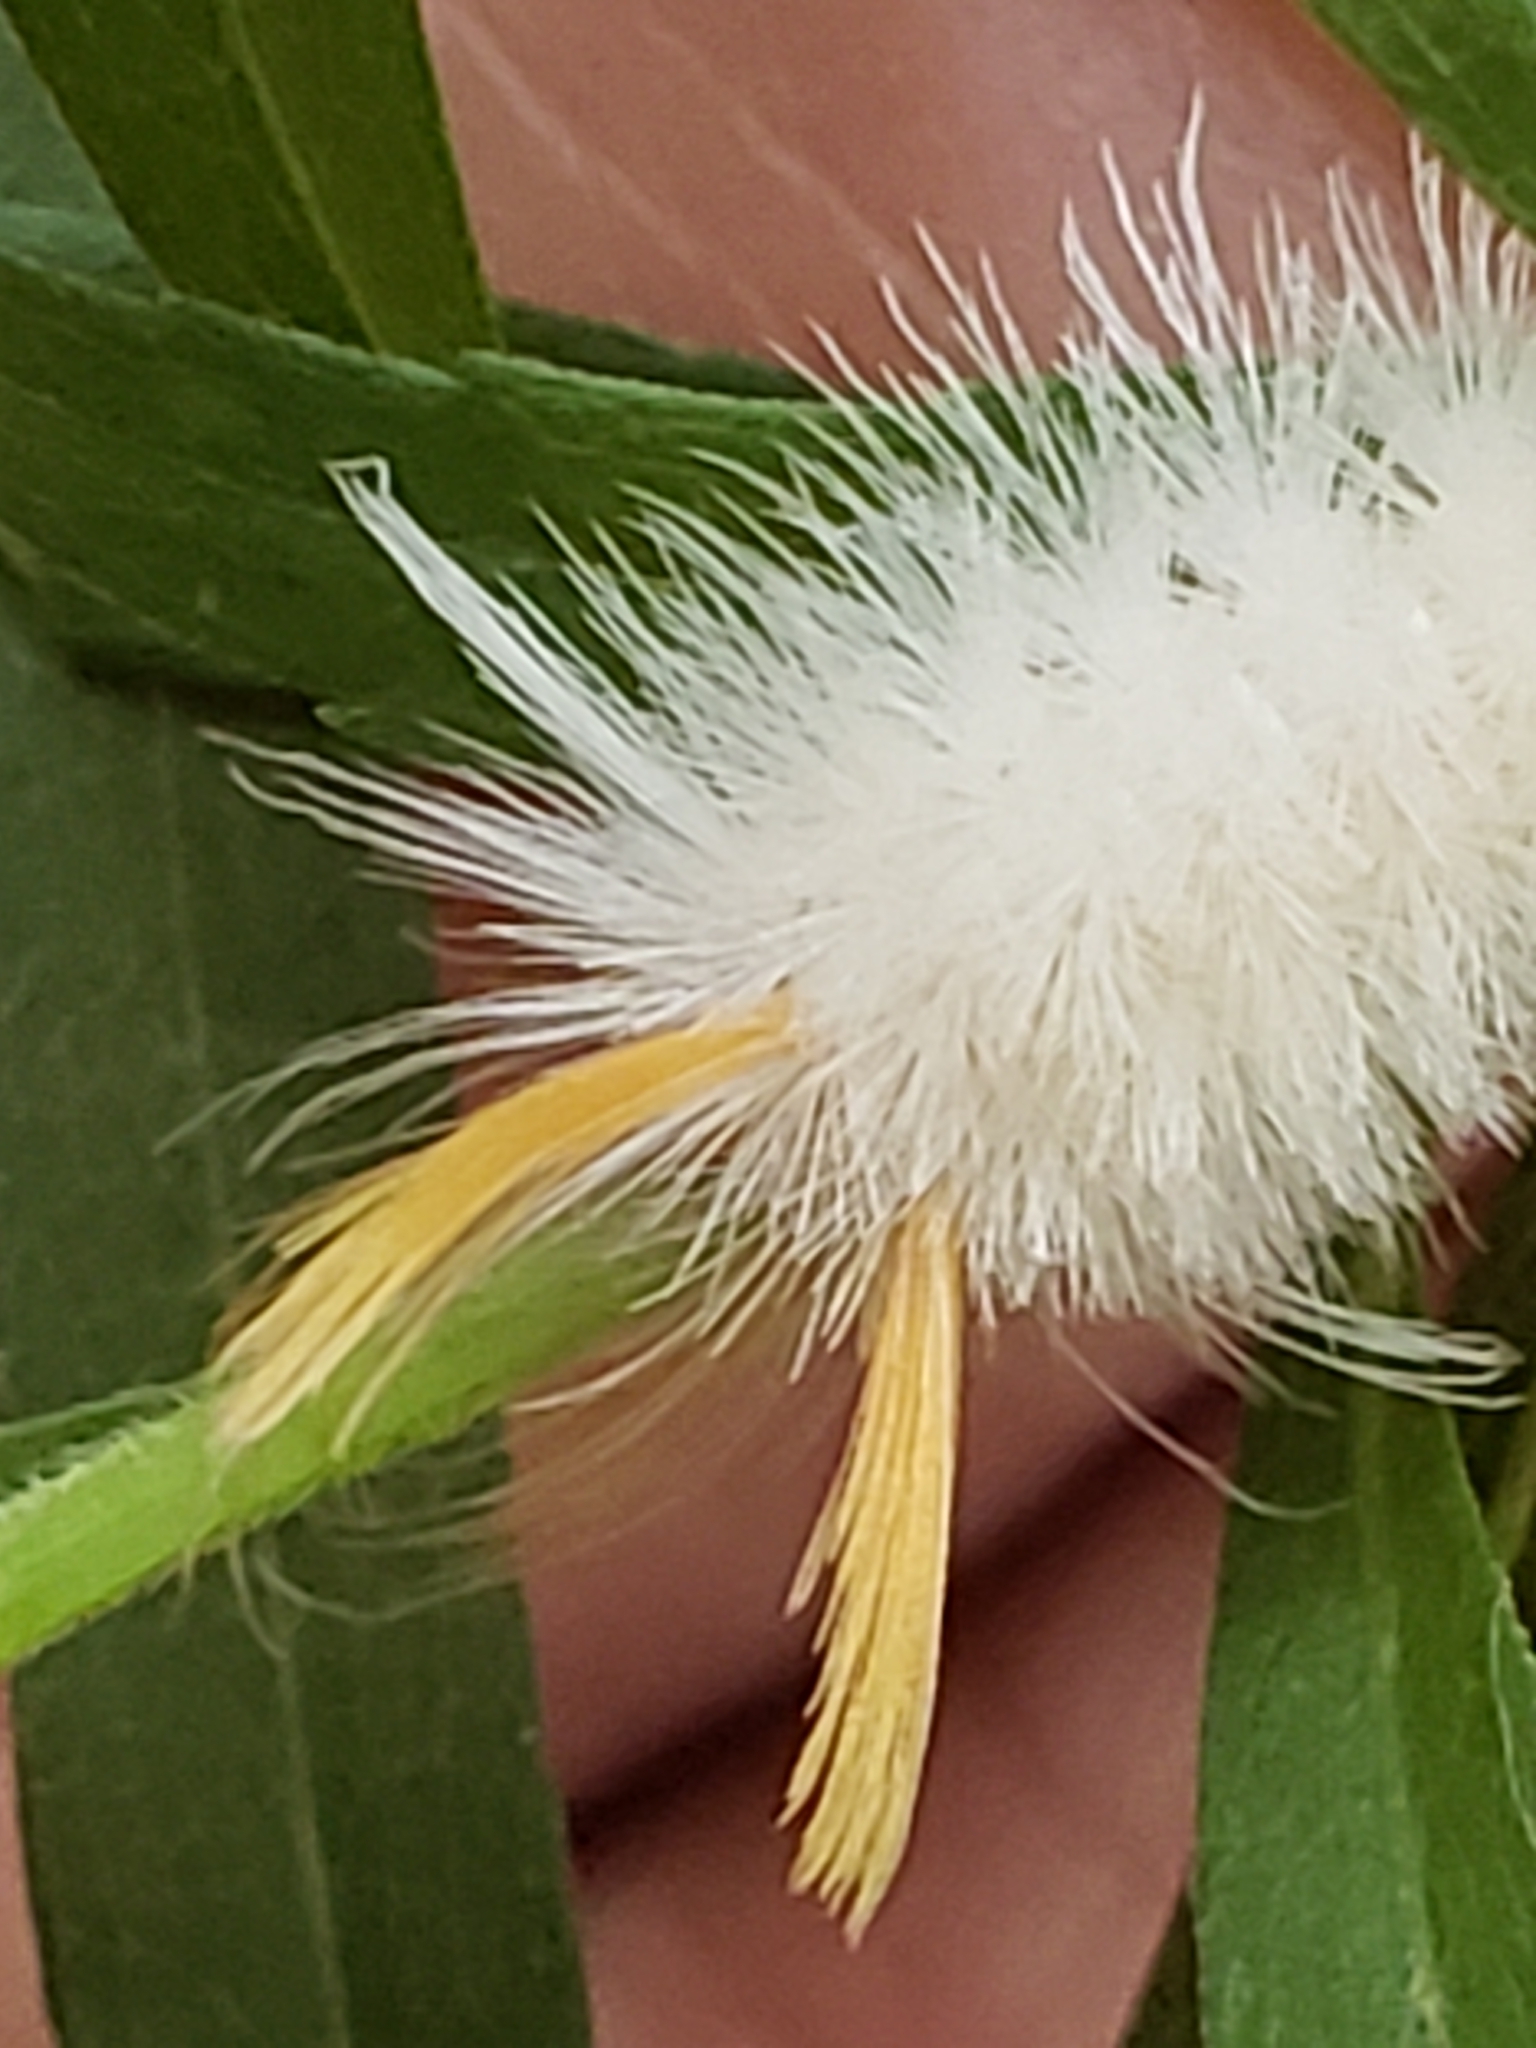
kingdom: Animalia
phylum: Arthropoda
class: Insecta
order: Lepidoptera
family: Erebidae
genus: Halysidota
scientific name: Halysidota harrisii
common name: Sycamore tussock moth
